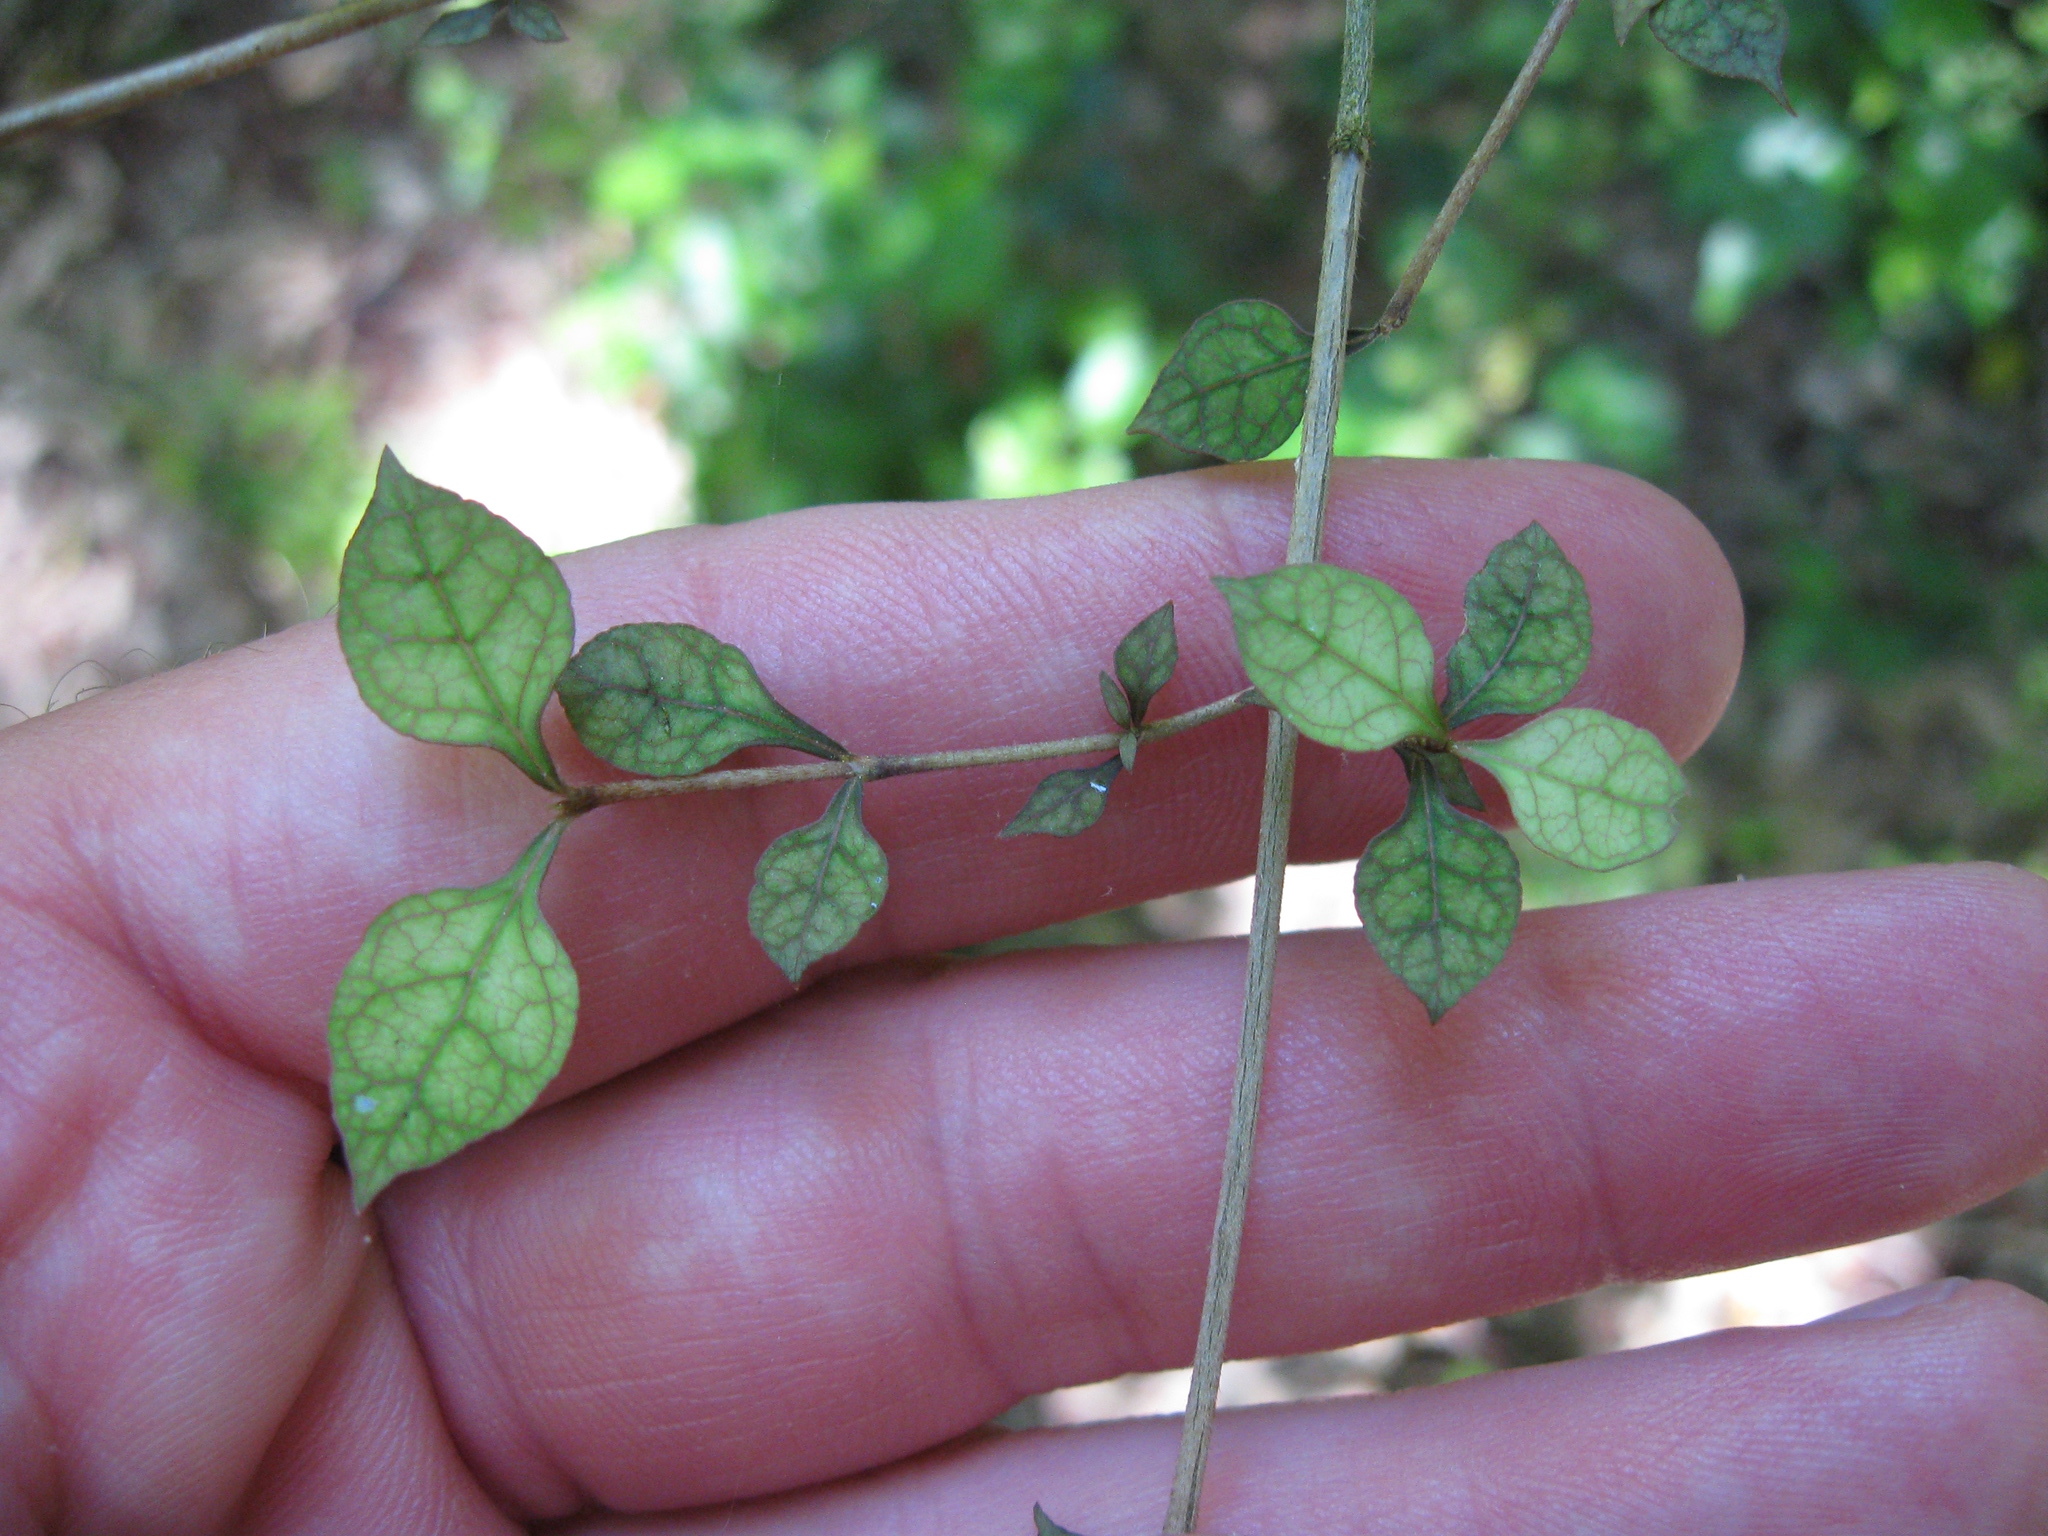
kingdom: Plantae
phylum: Tracheophyta
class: Magnoliopsida
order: Gentianales
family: Rubiaceae
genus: Coprosma
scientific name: Coprosma areolata
